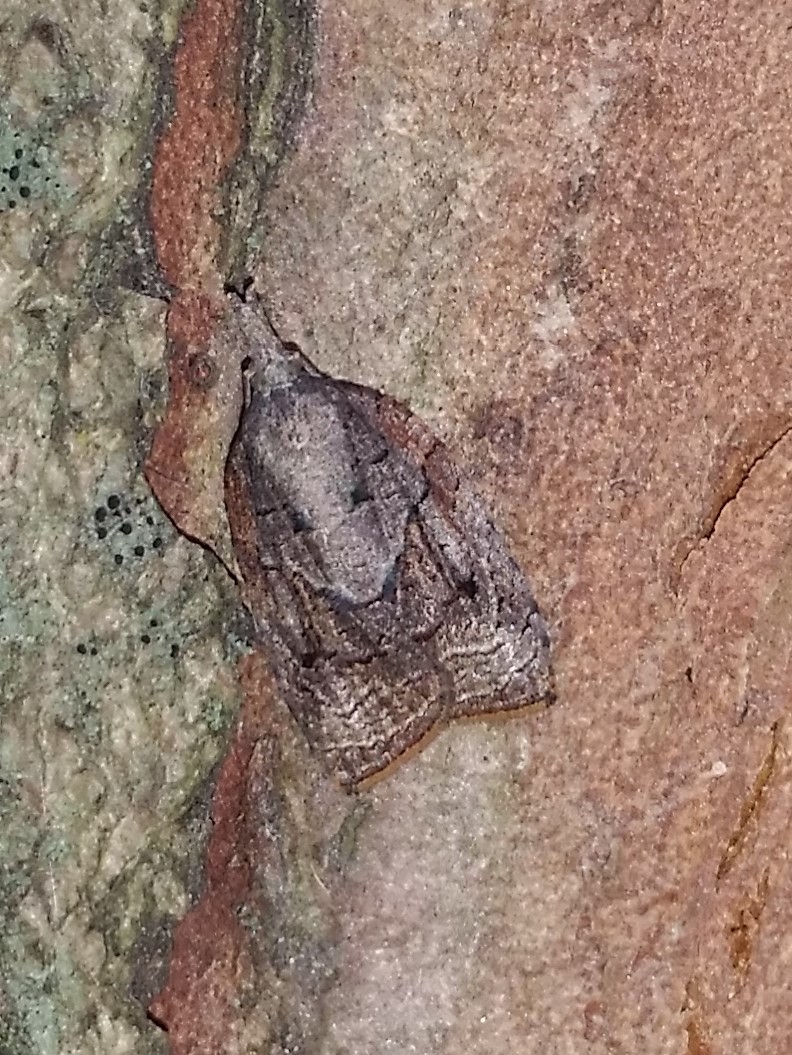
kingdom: Animalia
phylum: Arthropoda
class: Insecta
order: Lepidoptera
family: Tortricidae
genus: Platynota
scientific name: Platynota idaeusalis
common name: Tufted apple bud moth
